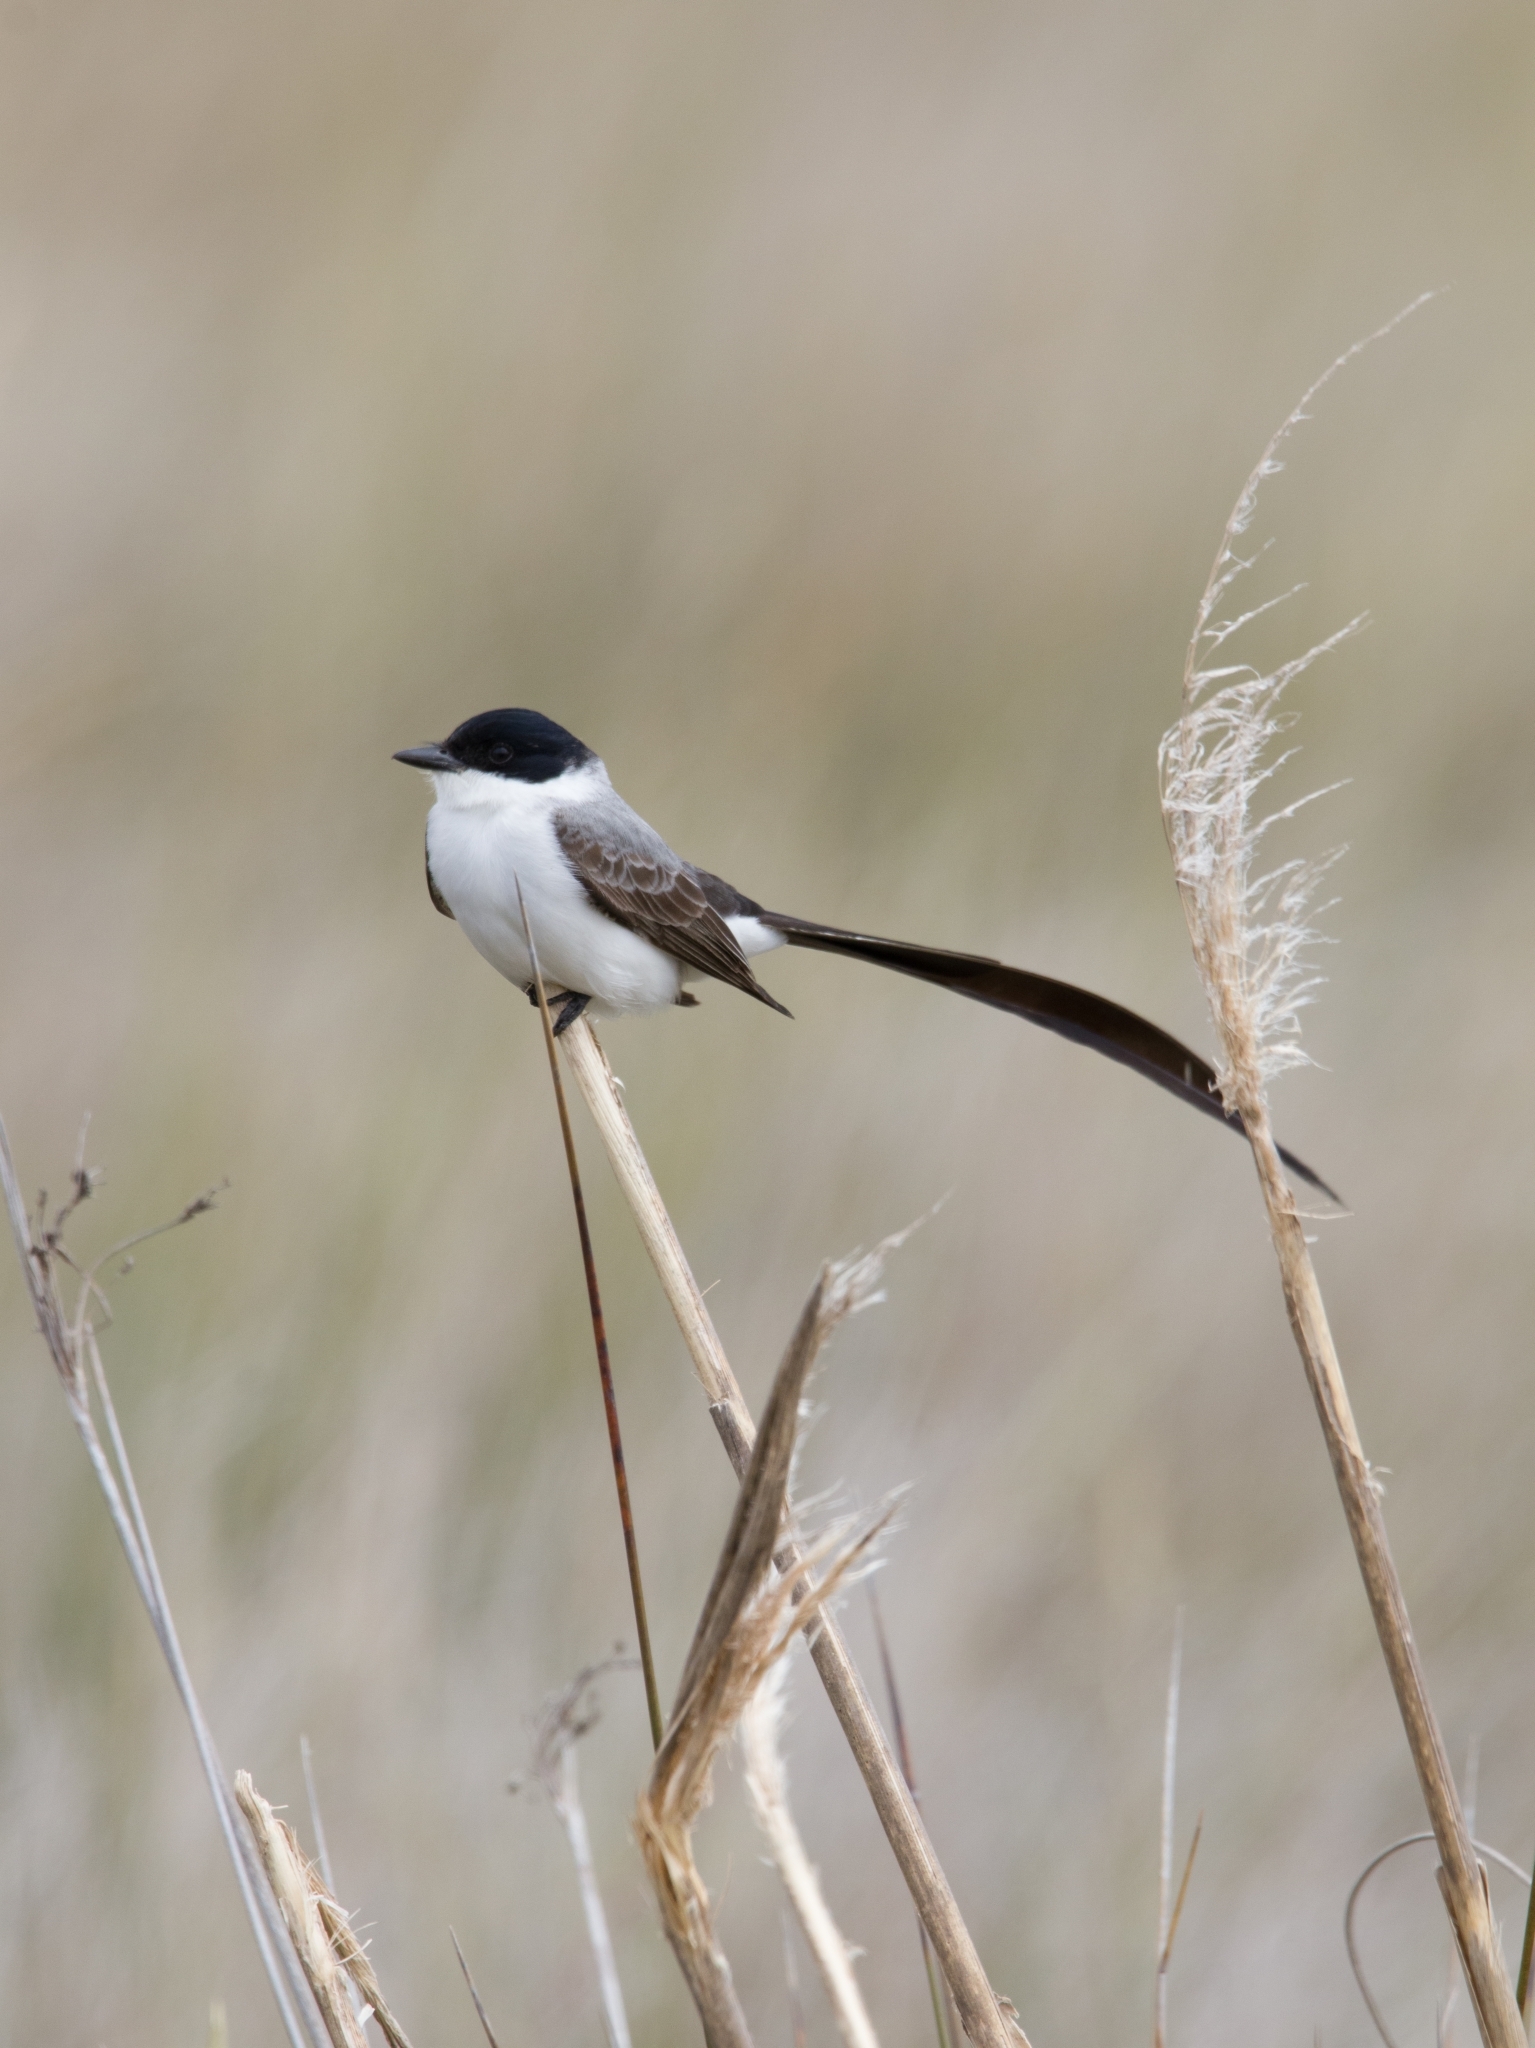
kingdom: Animalia
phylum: Chordata
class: Aves
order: Passeriformes
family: Tyrannidae
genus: Tyrannus
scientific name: Tyrannus savana
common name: Fork-tailed flycatcher
